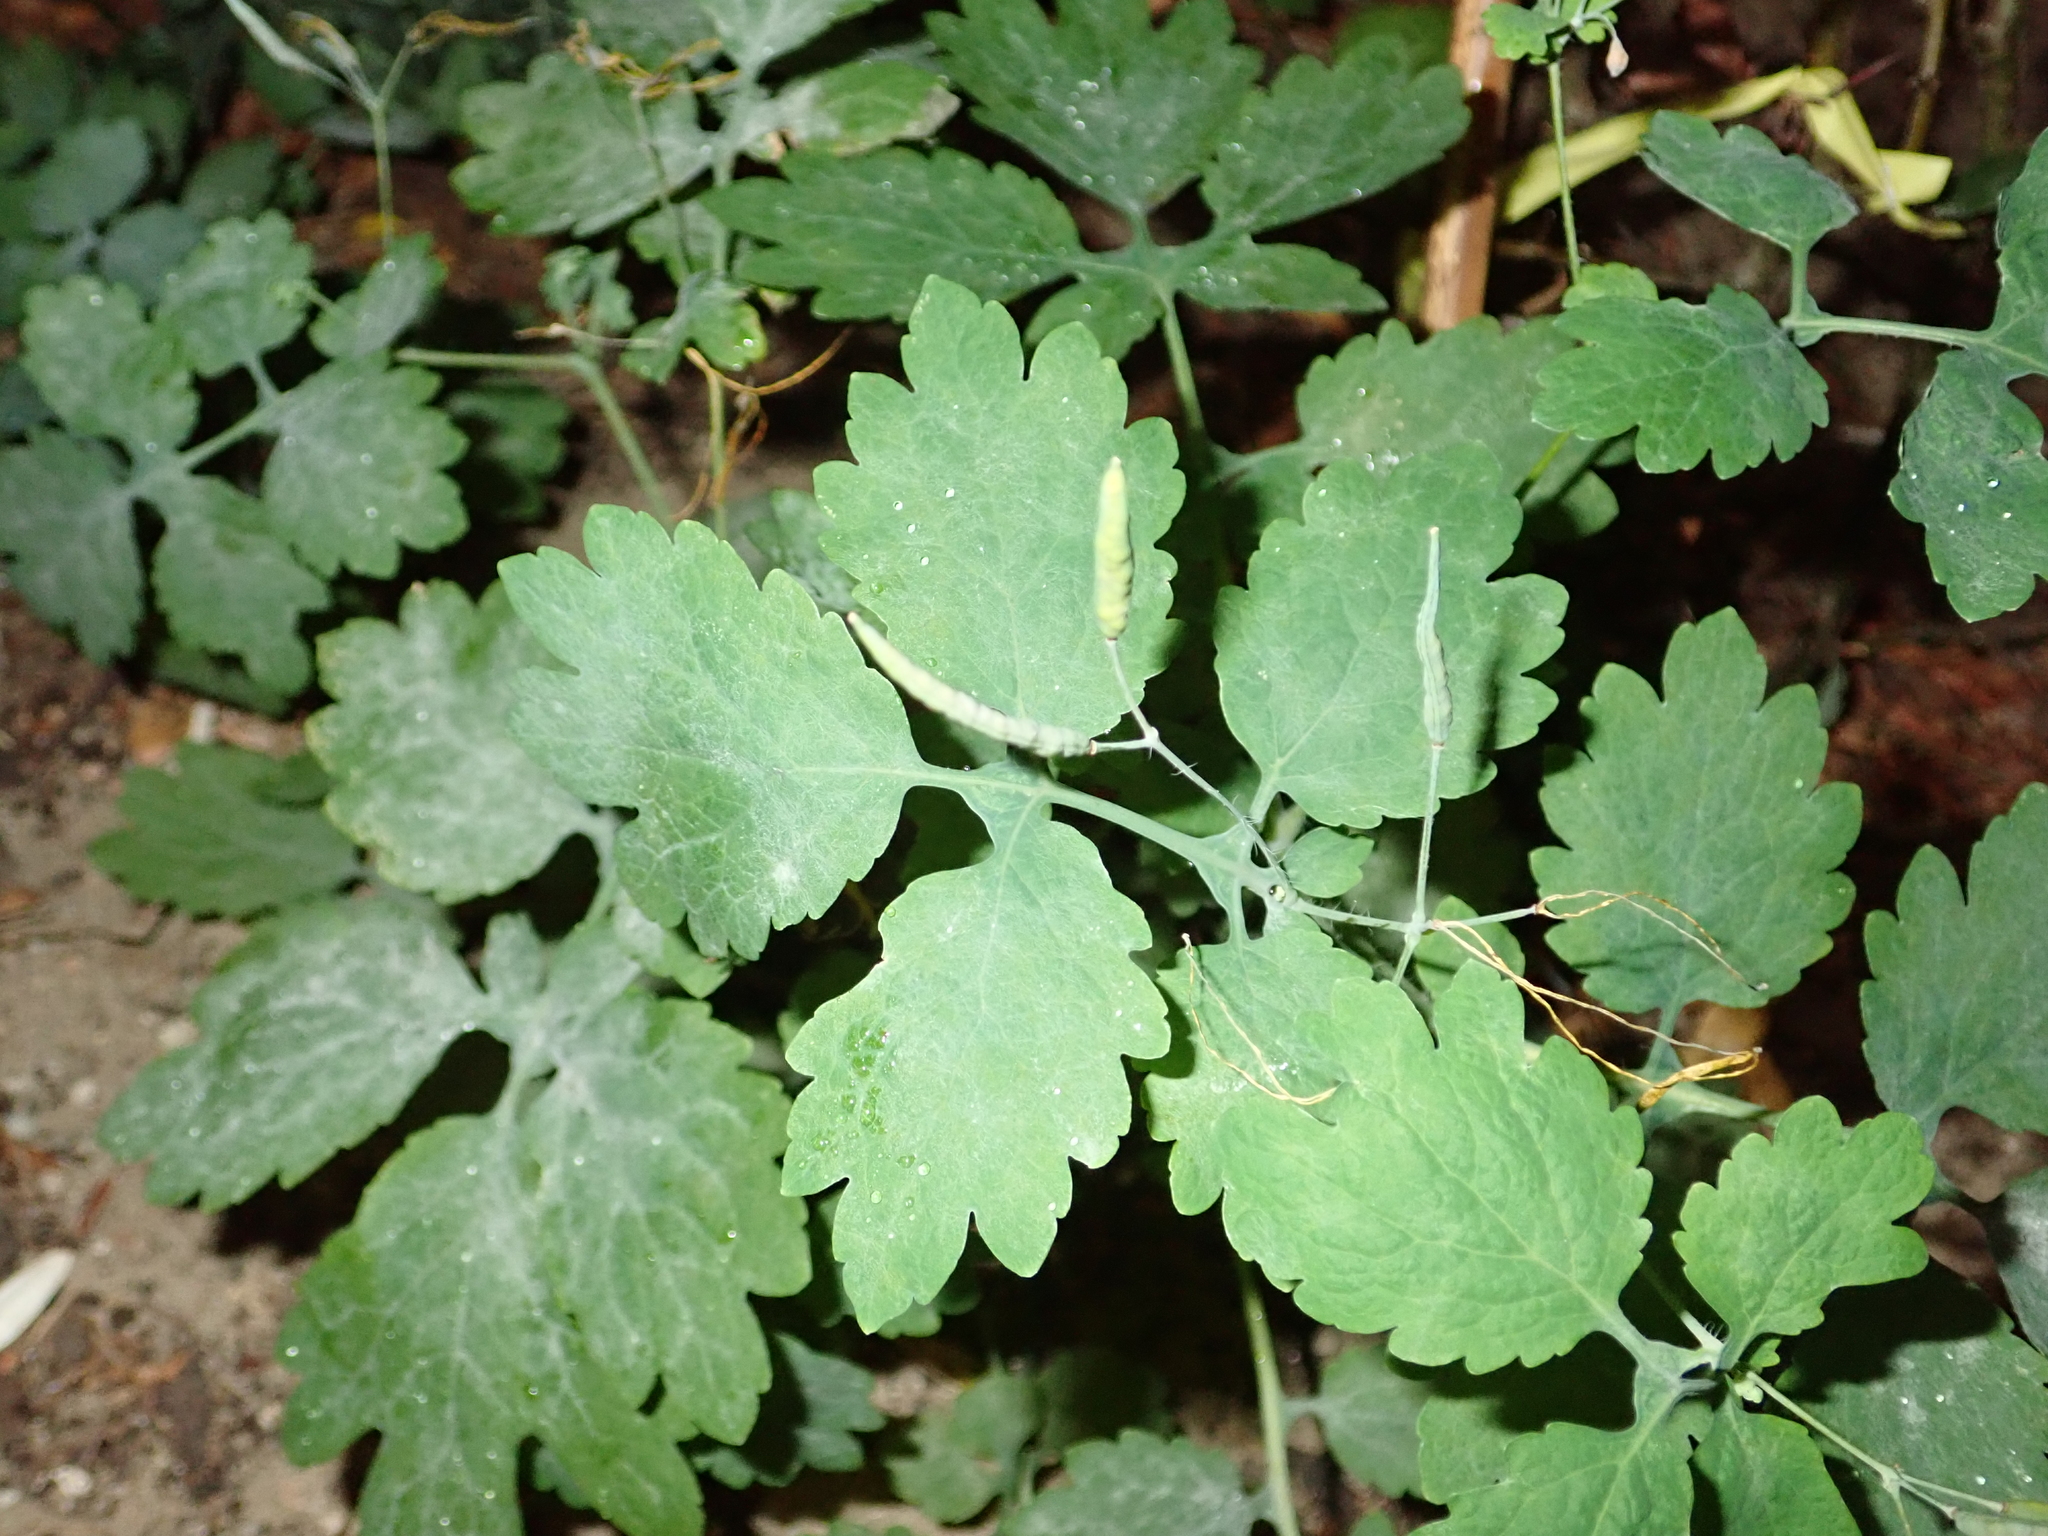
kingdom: Plantae
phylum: Tracheophyta
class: Magnoliopsida
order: Ranunculales
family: Papaveraceae
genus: Chelidonium
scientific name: Chelidonium majus
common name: Greater celandine
